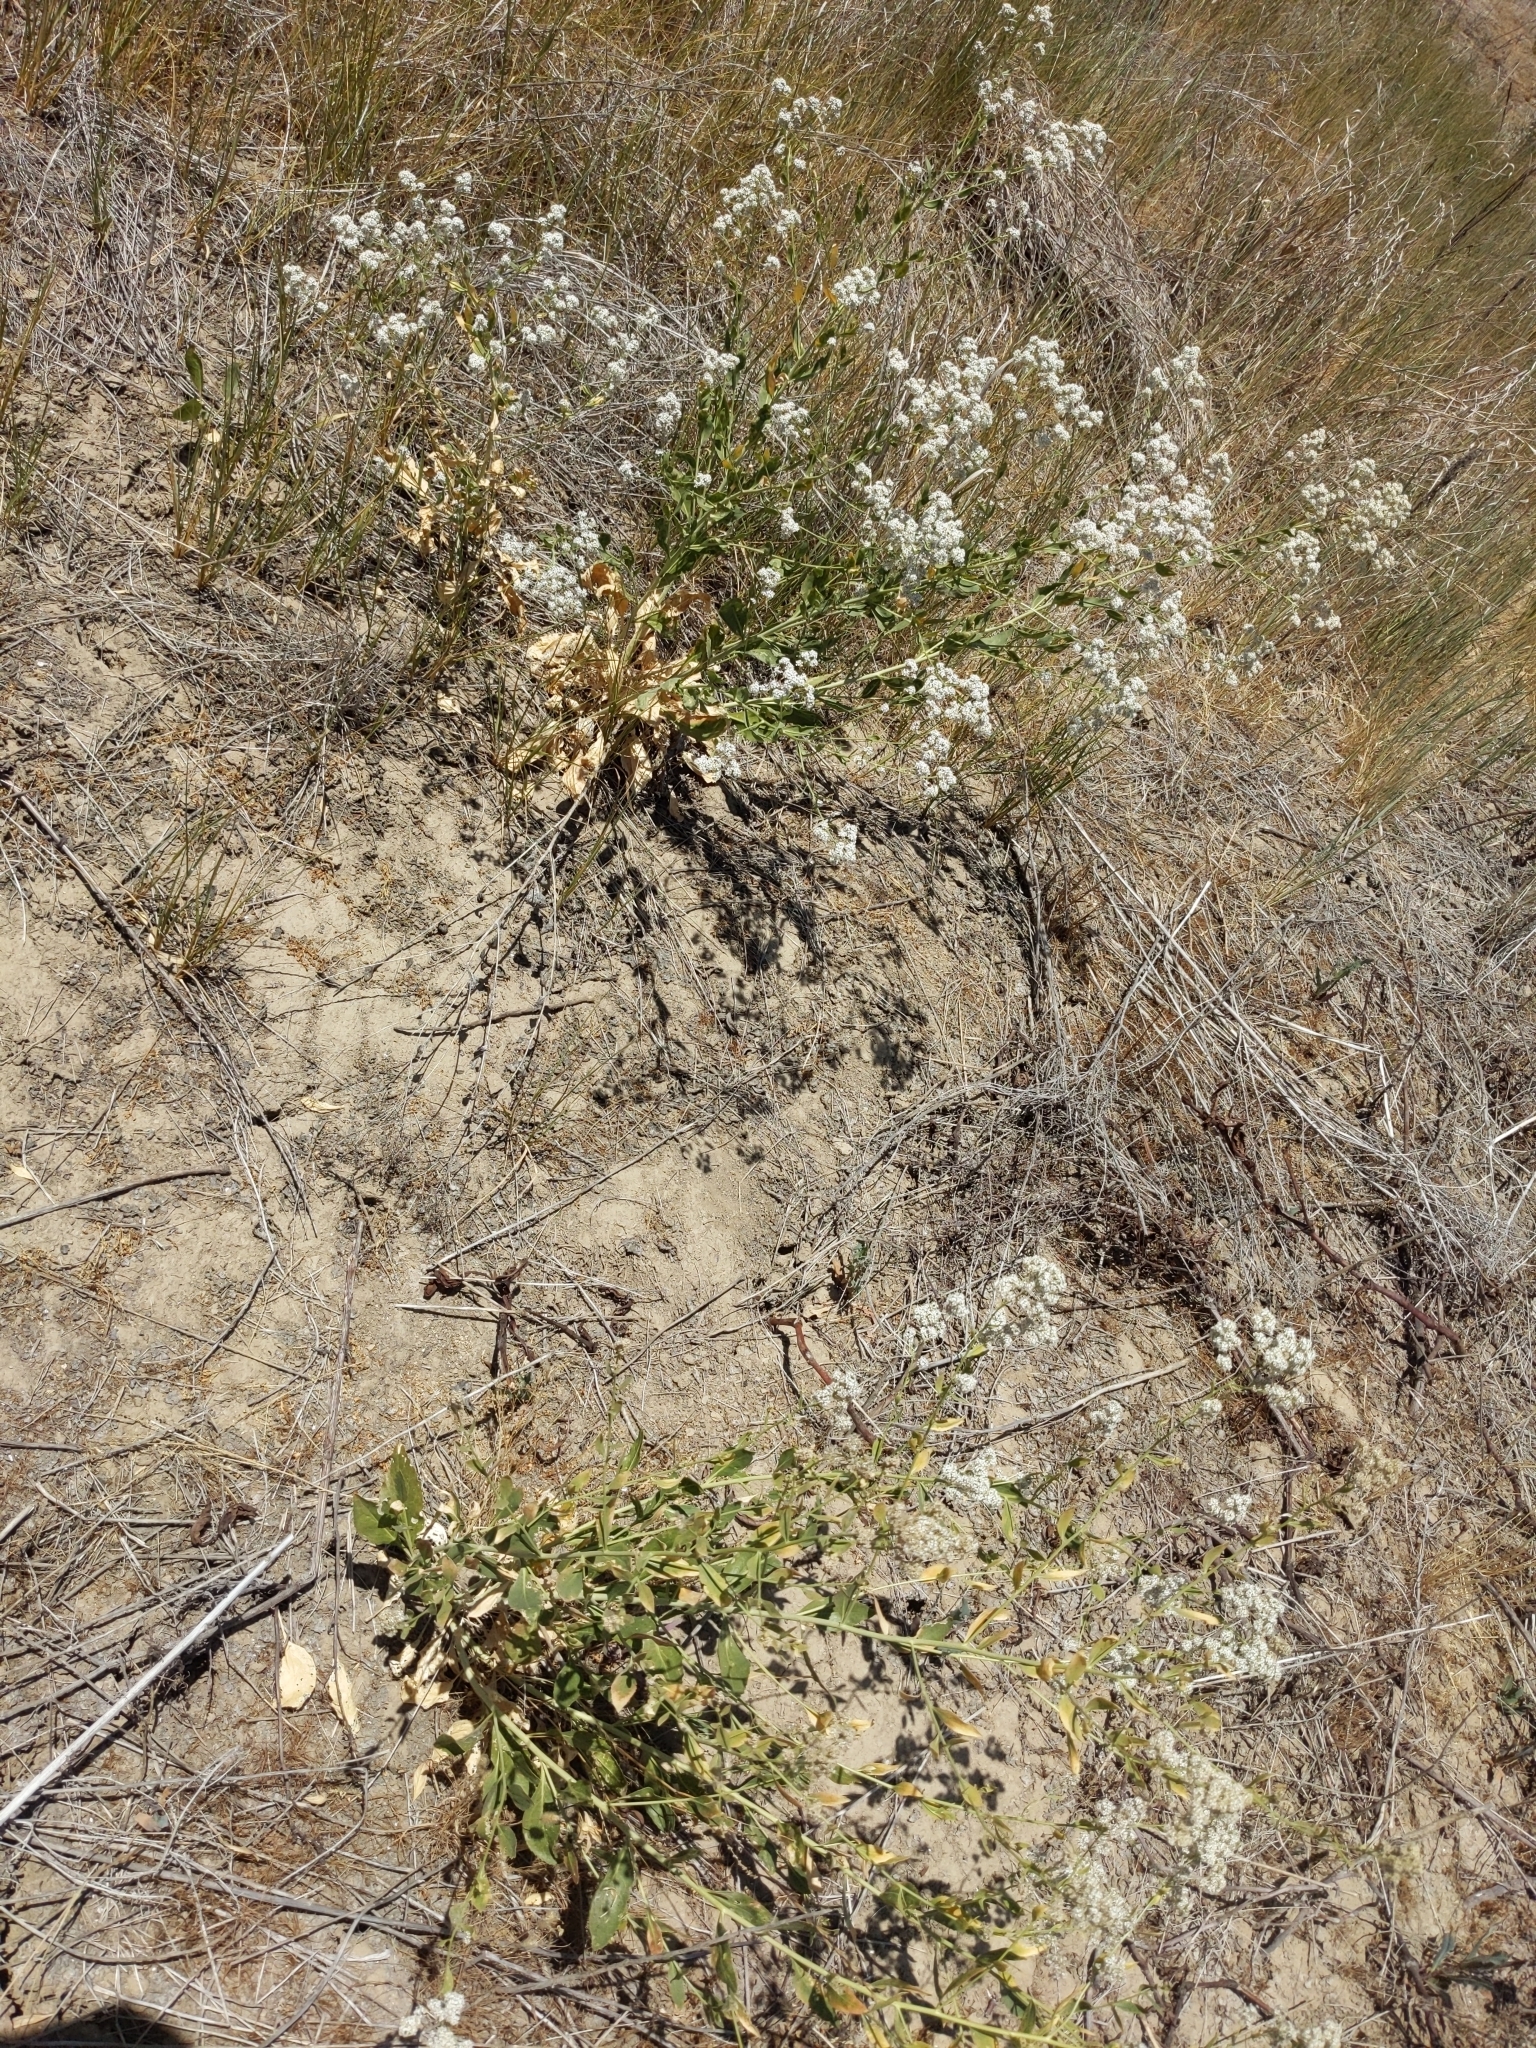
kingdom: Plantae
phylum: Tracheophyta
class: Magnoliopsida
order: Brassicales
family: Brassicaceae
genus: Lepidium
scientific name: Lepidium latifolium
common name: Dittander
